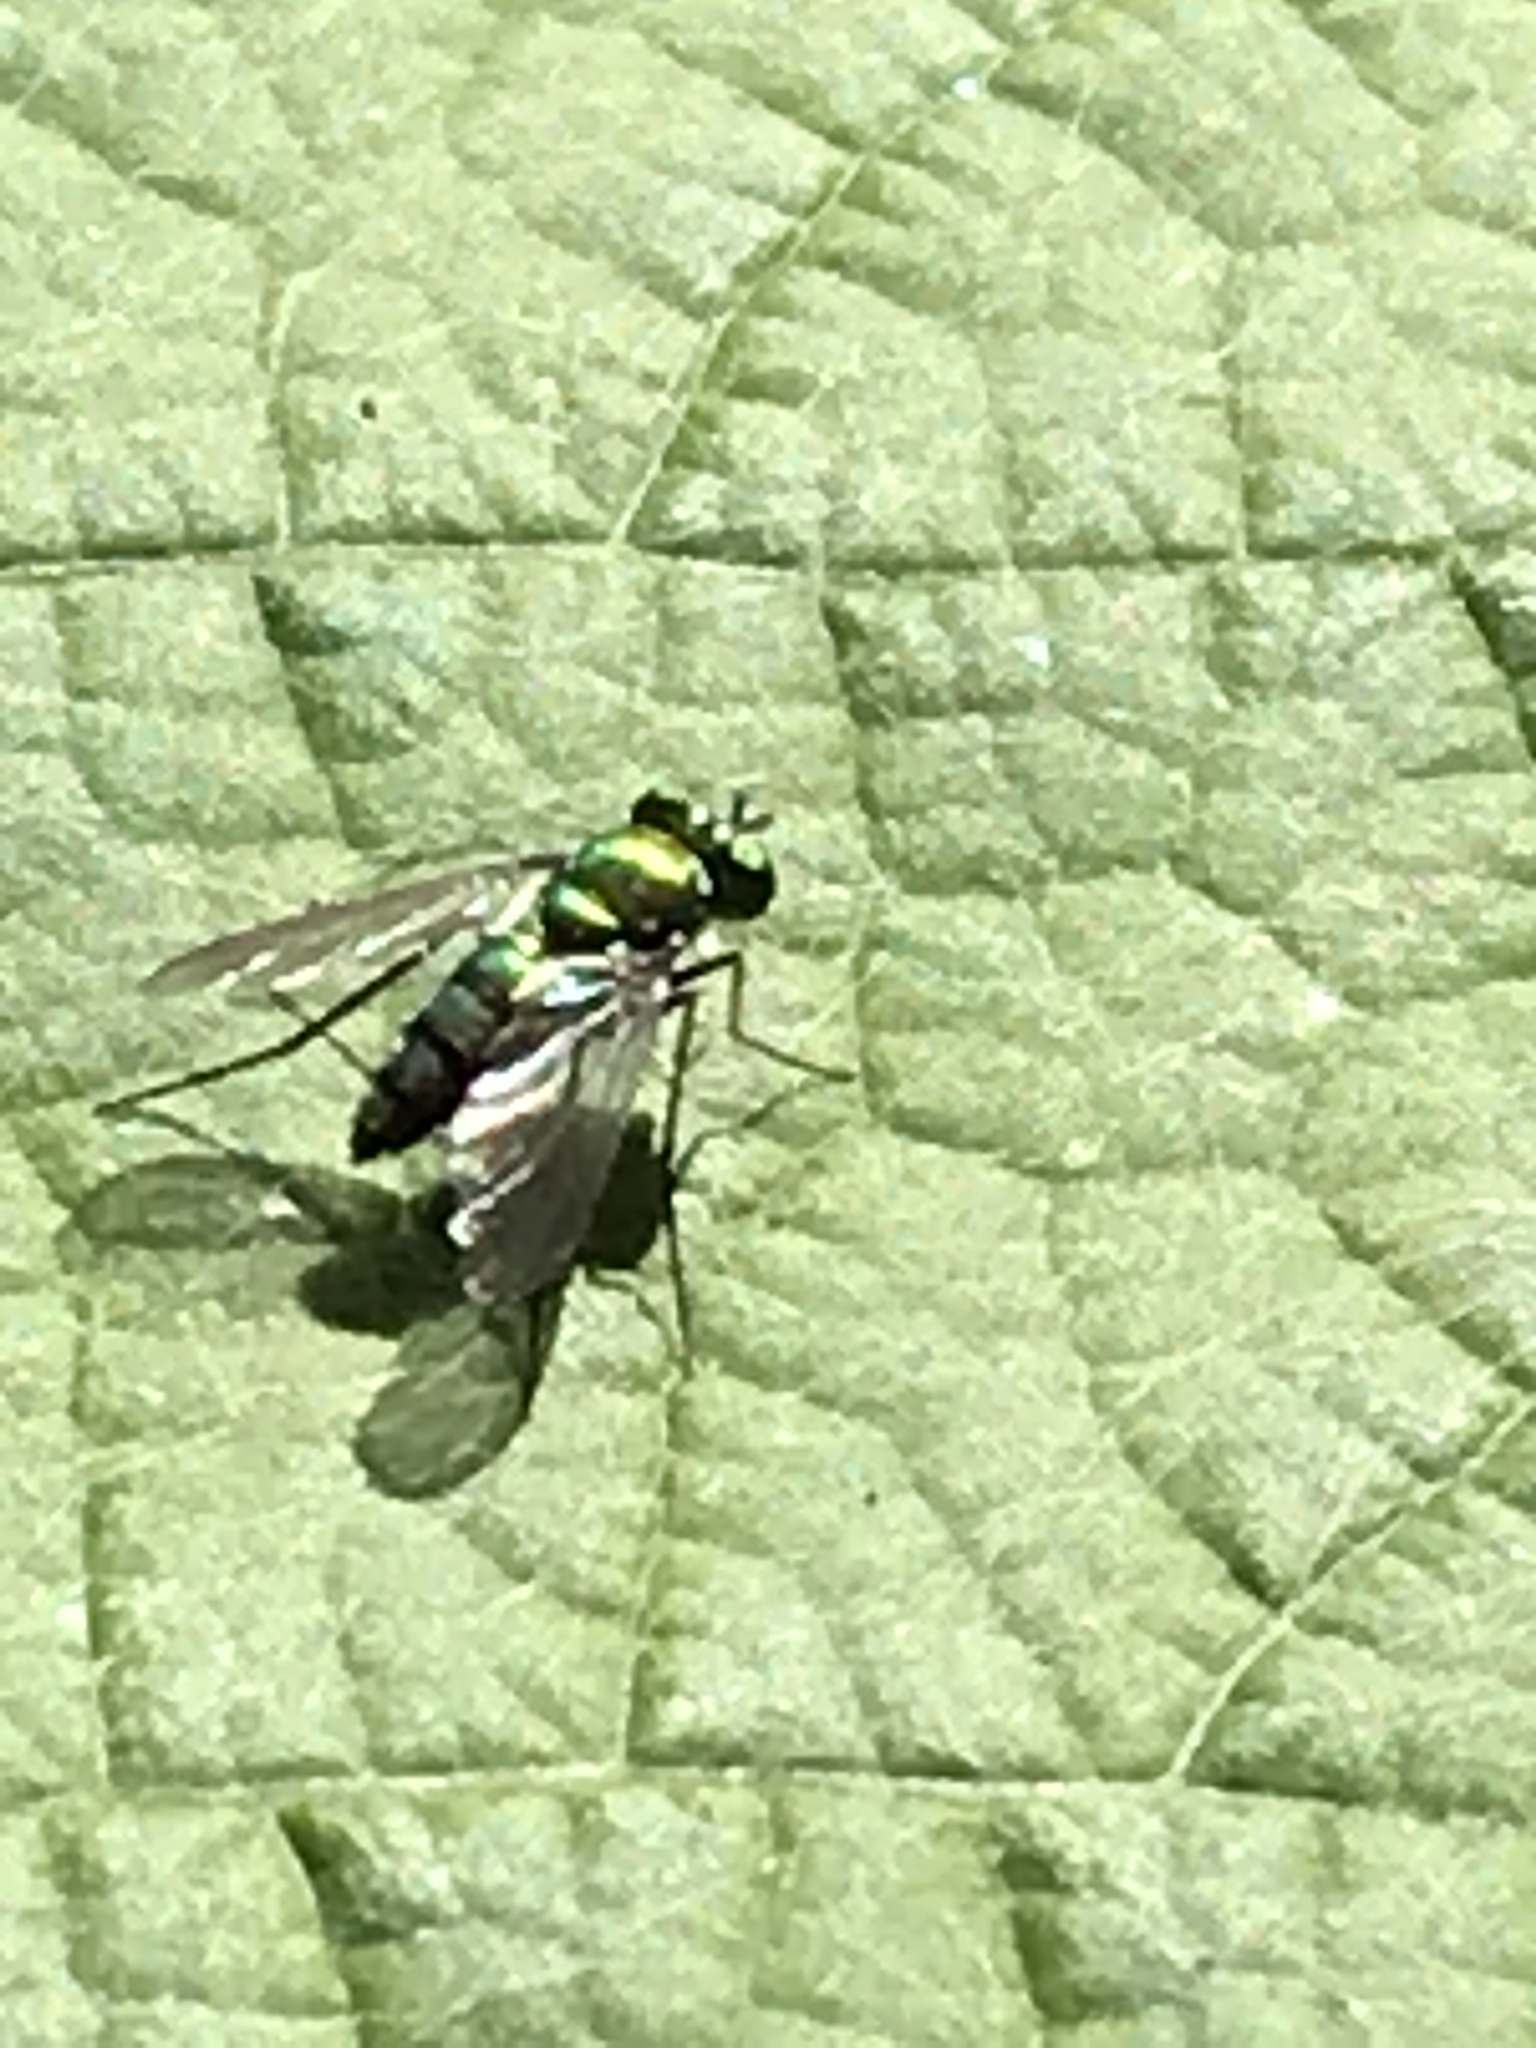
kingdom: Animalia
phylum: Arthropoda
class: Insecta
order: Diptera
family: Dolichopodidae
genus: Condylostylus
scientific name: Condylostylus longicornis
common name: Long-legged fly
